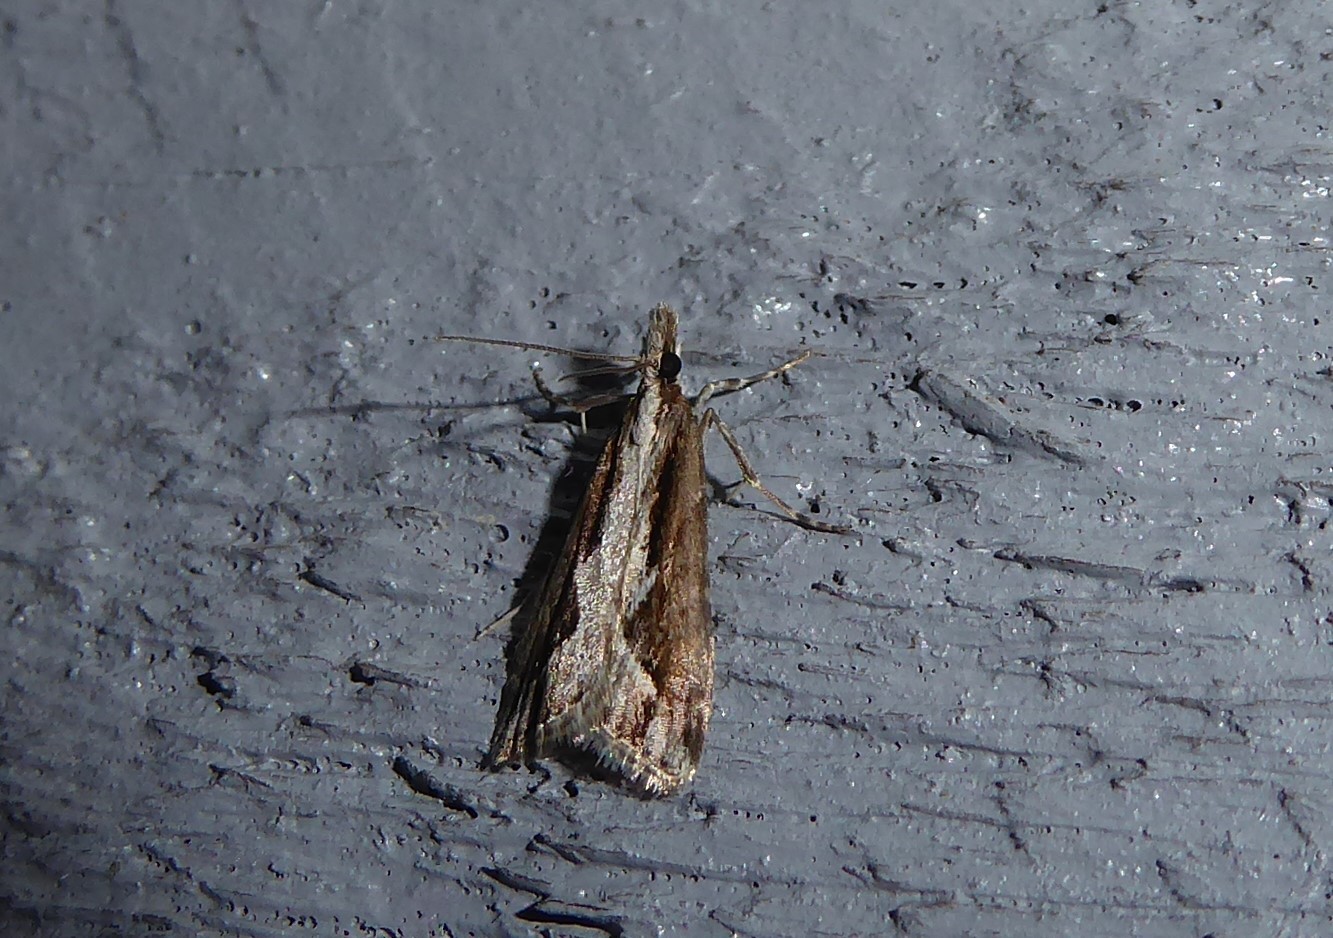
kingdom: Animalia
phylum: Arthropoda
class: Insecta
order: Lepidoptera
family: Crambidae
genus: Eudonia
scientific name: Eudonia steropaea
